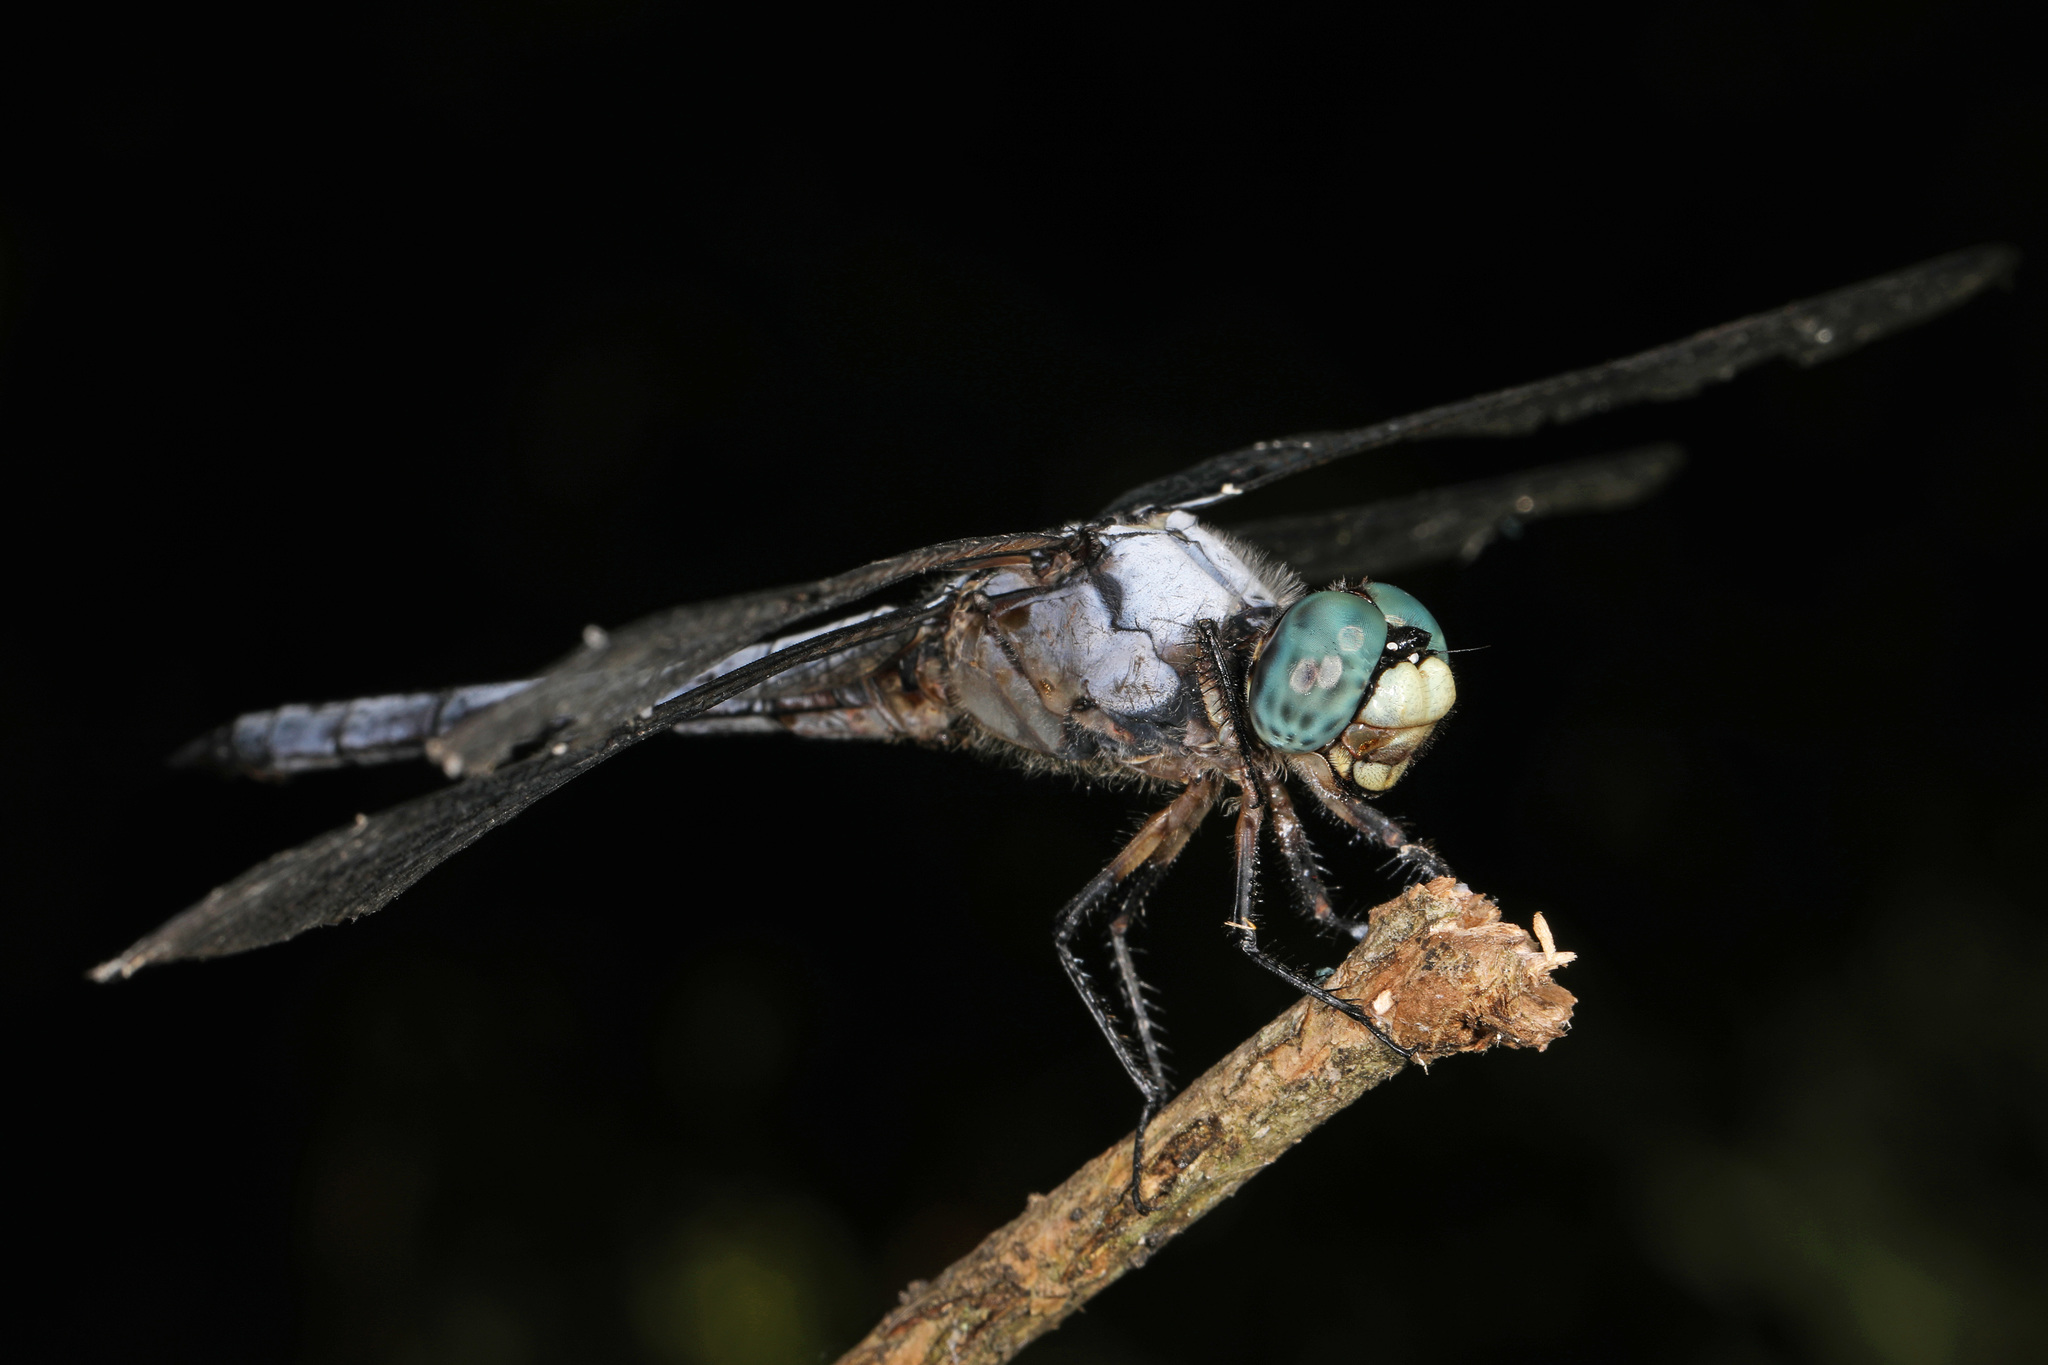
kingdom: Animalia
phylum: Arthropoda
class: Insecta
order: Odonata
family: Libellulidae
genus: Libellula
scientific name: Libellula vibrans
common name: Great blue skimmer
